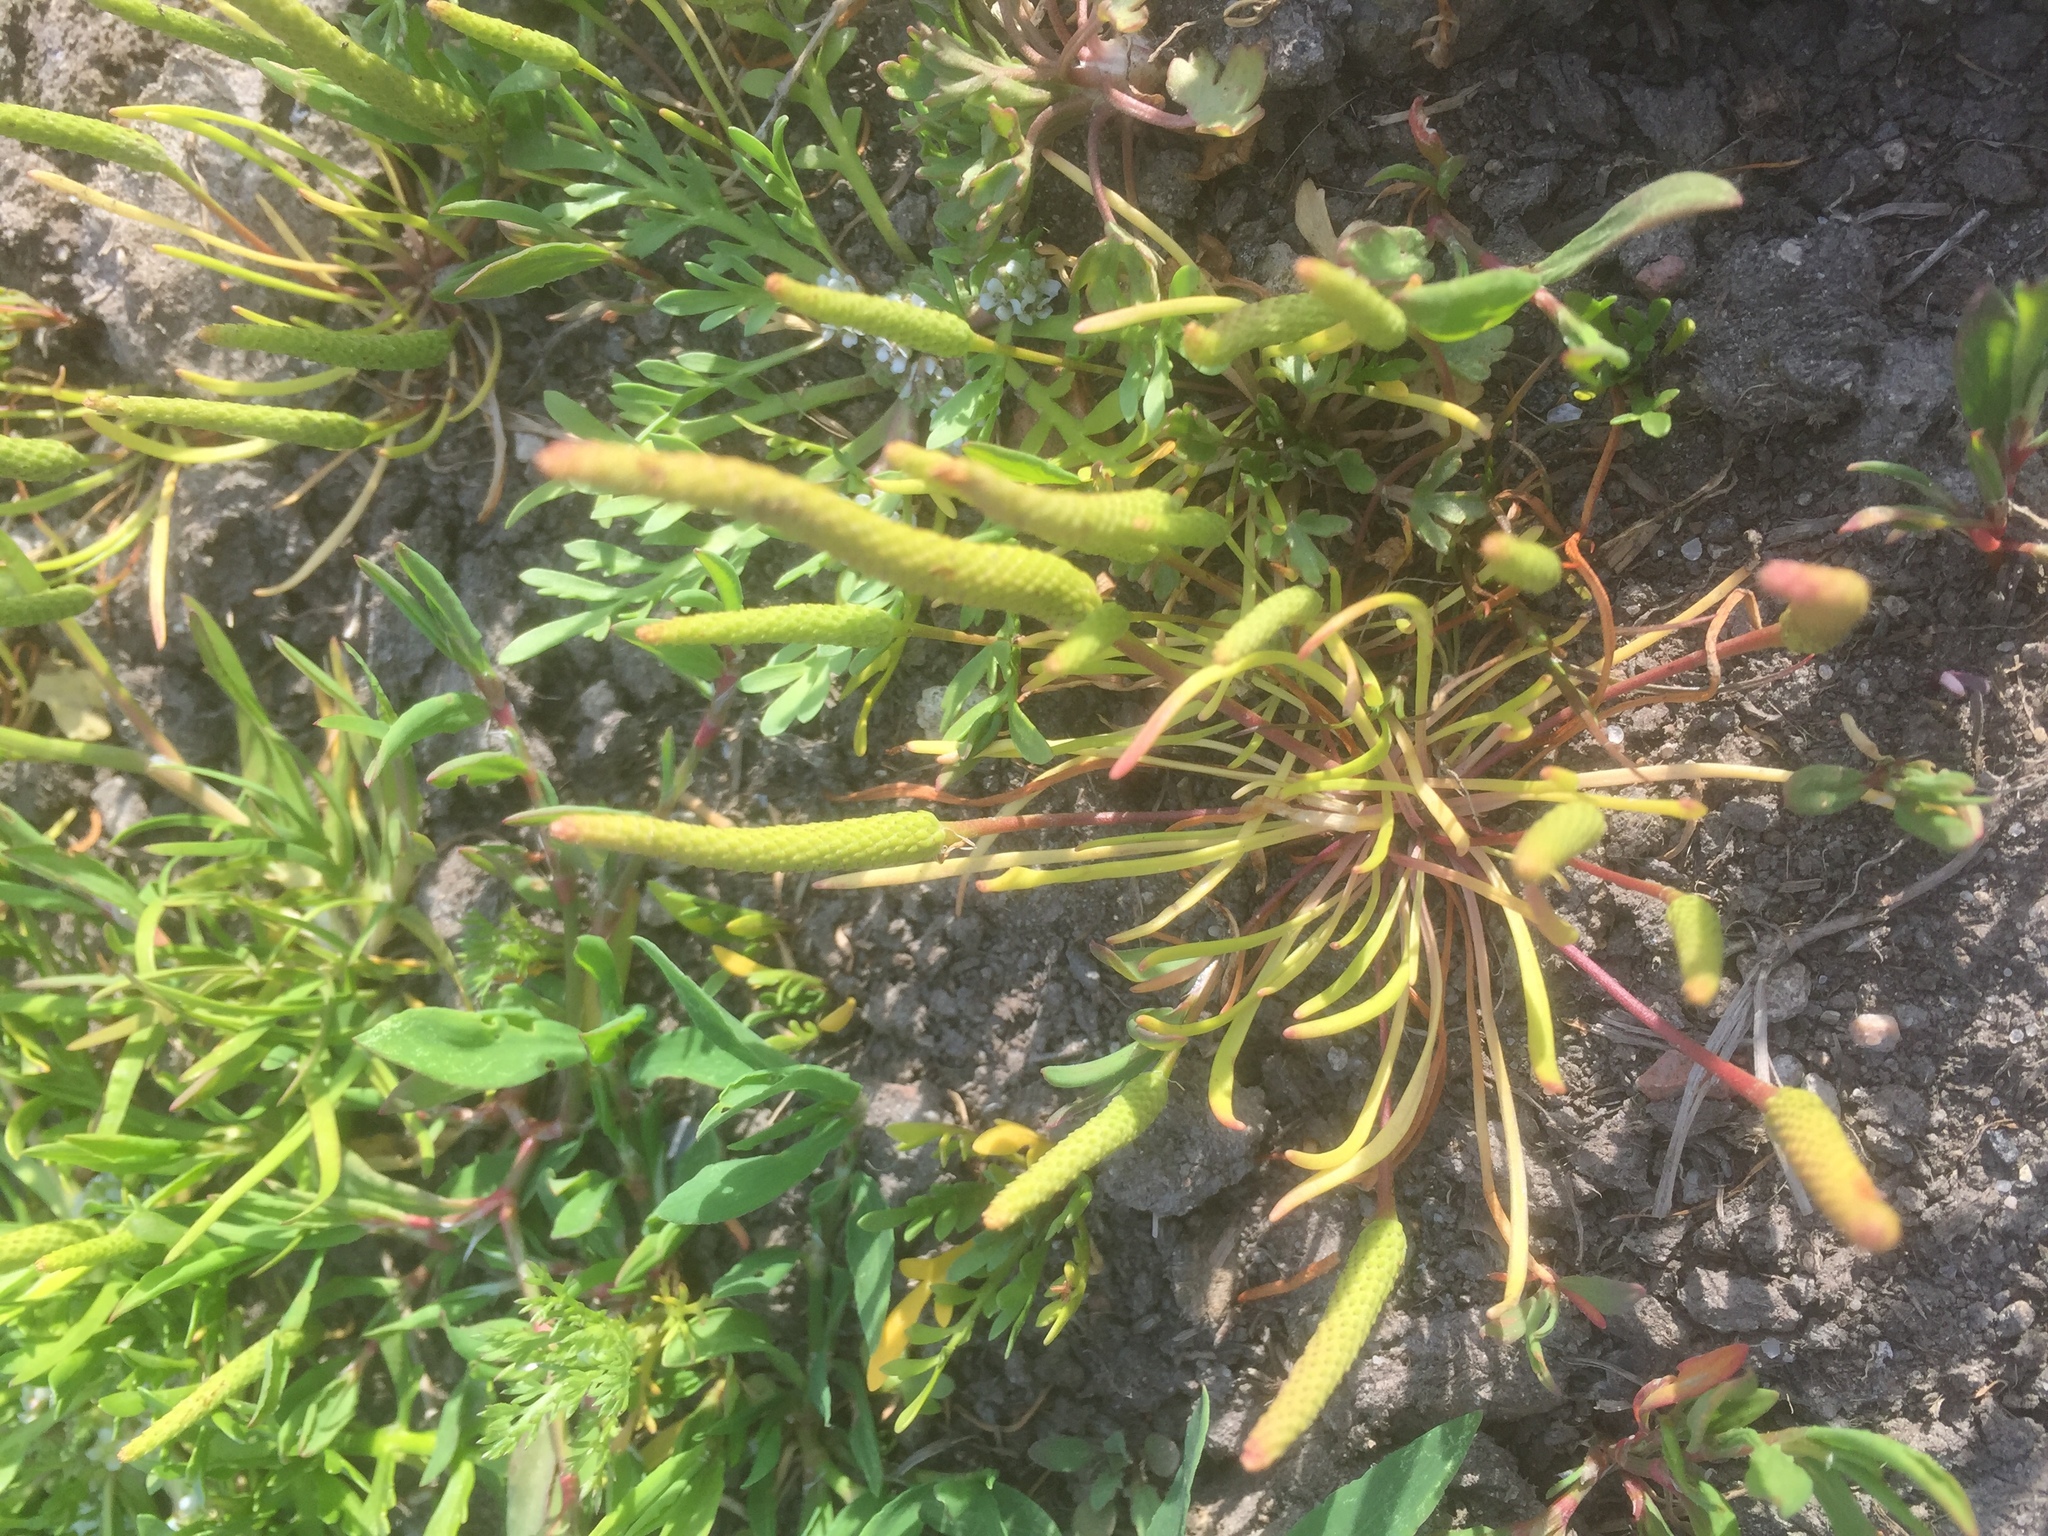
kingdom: Plantae
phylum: Tracheophyta
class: Magnoliopsida
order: Ranunculales
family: Ranunculaceae
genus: Myosurus
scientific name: Myosurus minimus
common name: Mousetail
